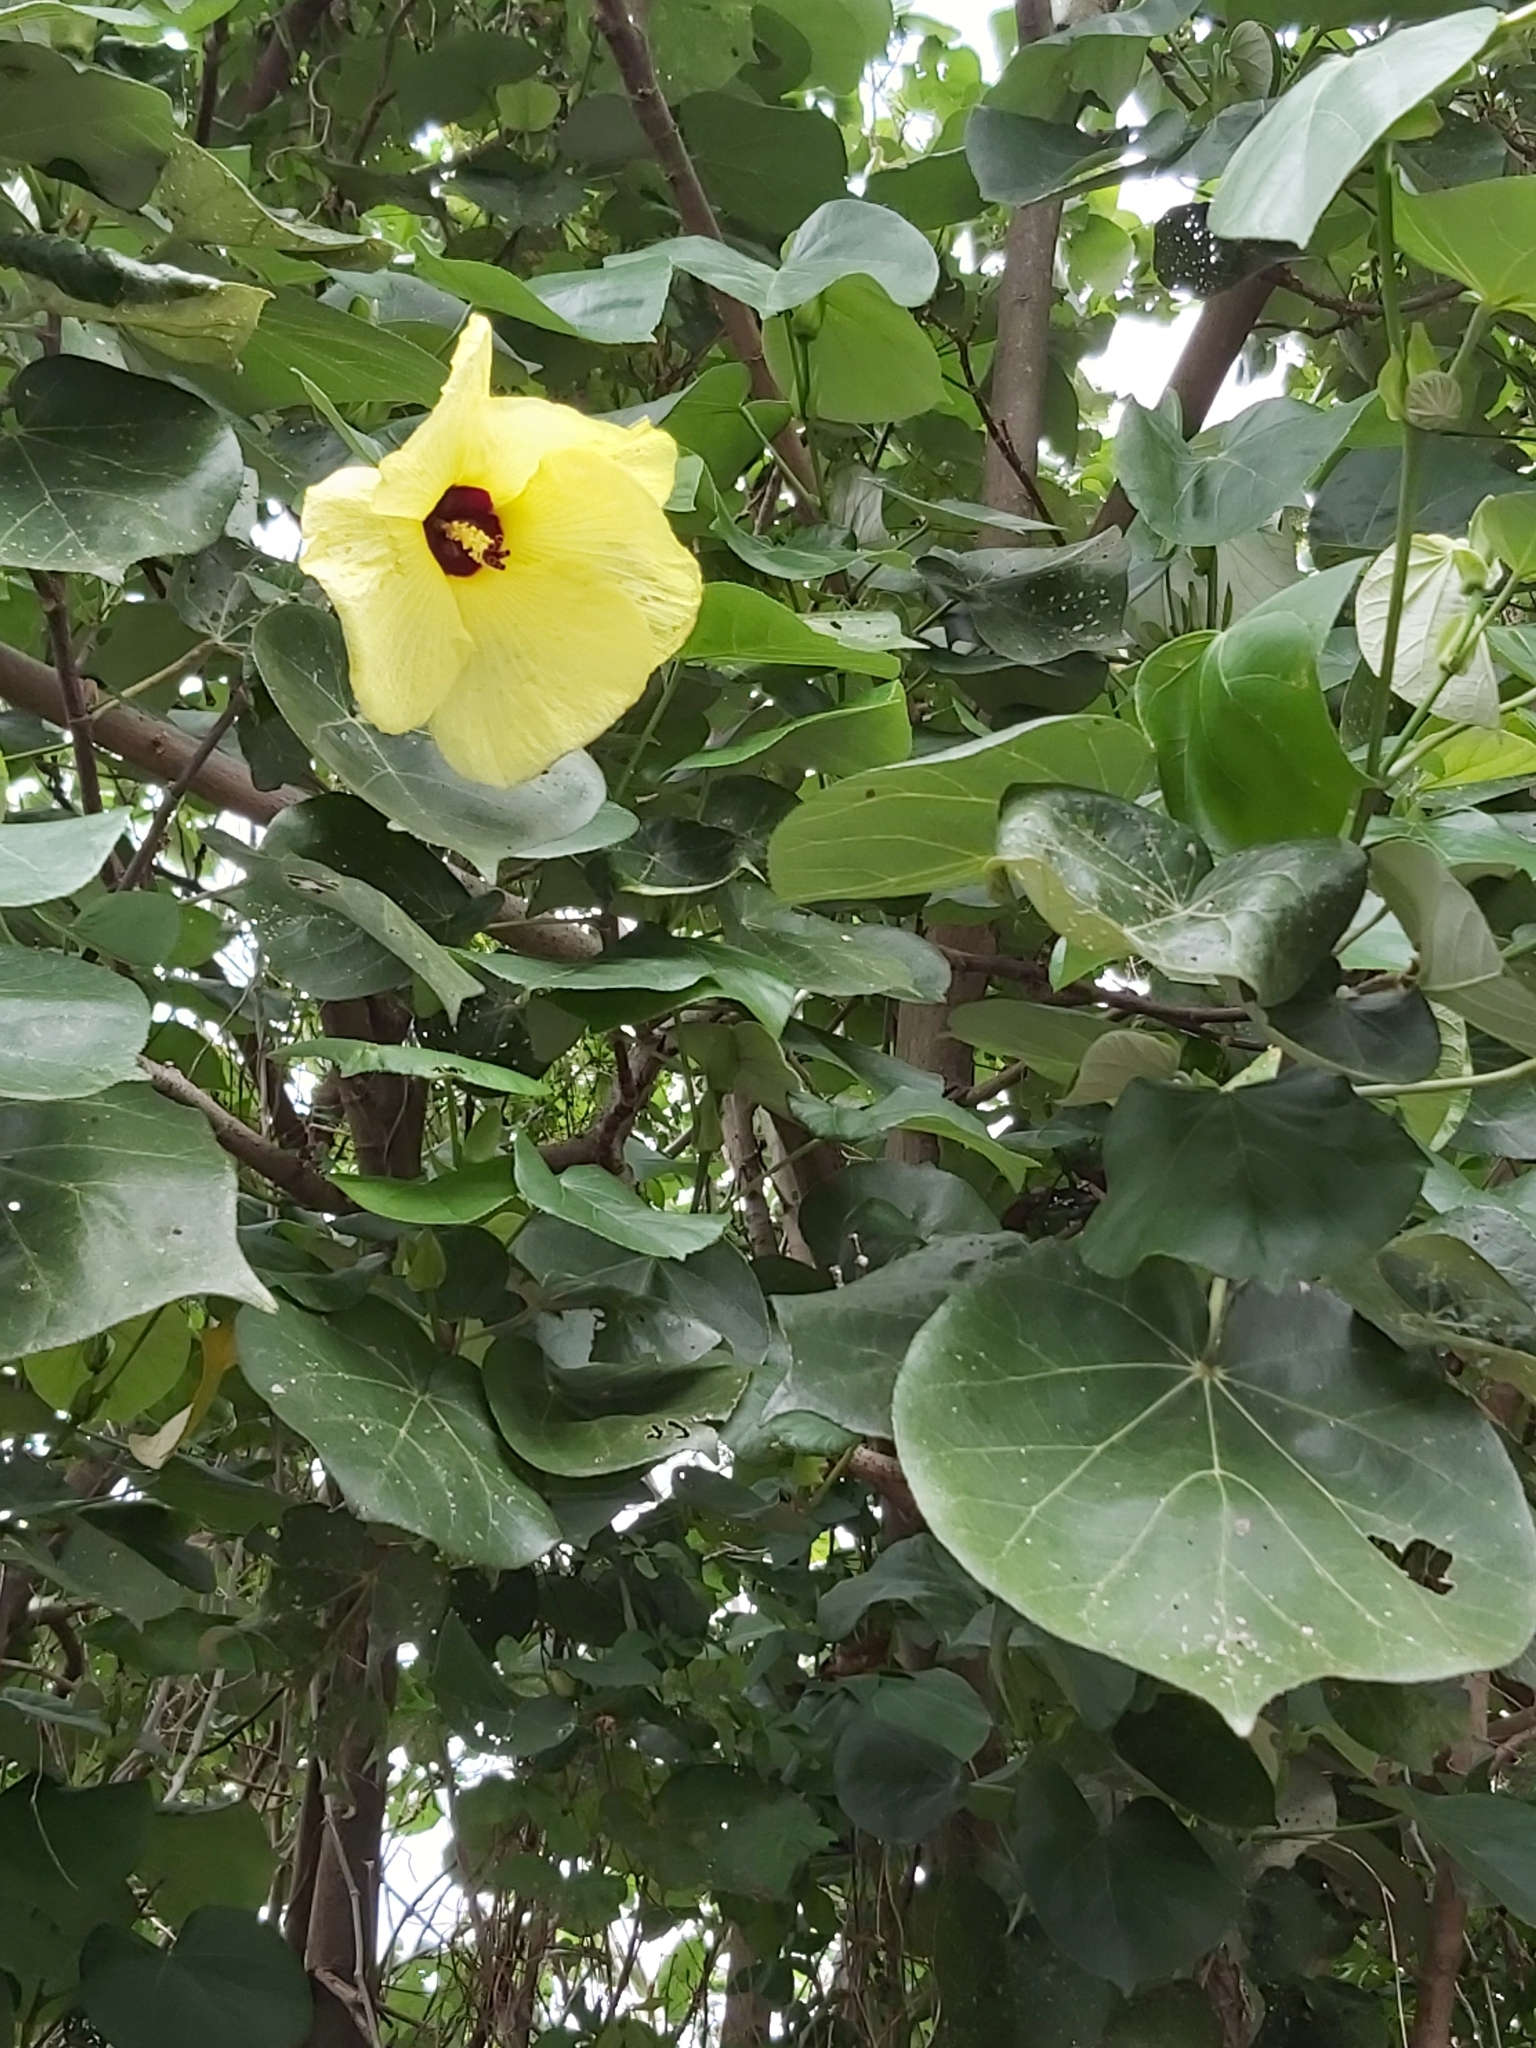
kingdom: Plantae
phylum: Tracheophyta
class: Magnoliopsida
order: Malvales
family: Malvaceae
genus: Talipariti
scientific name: Talipariti tiliaceum
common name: Sea hibiscus
